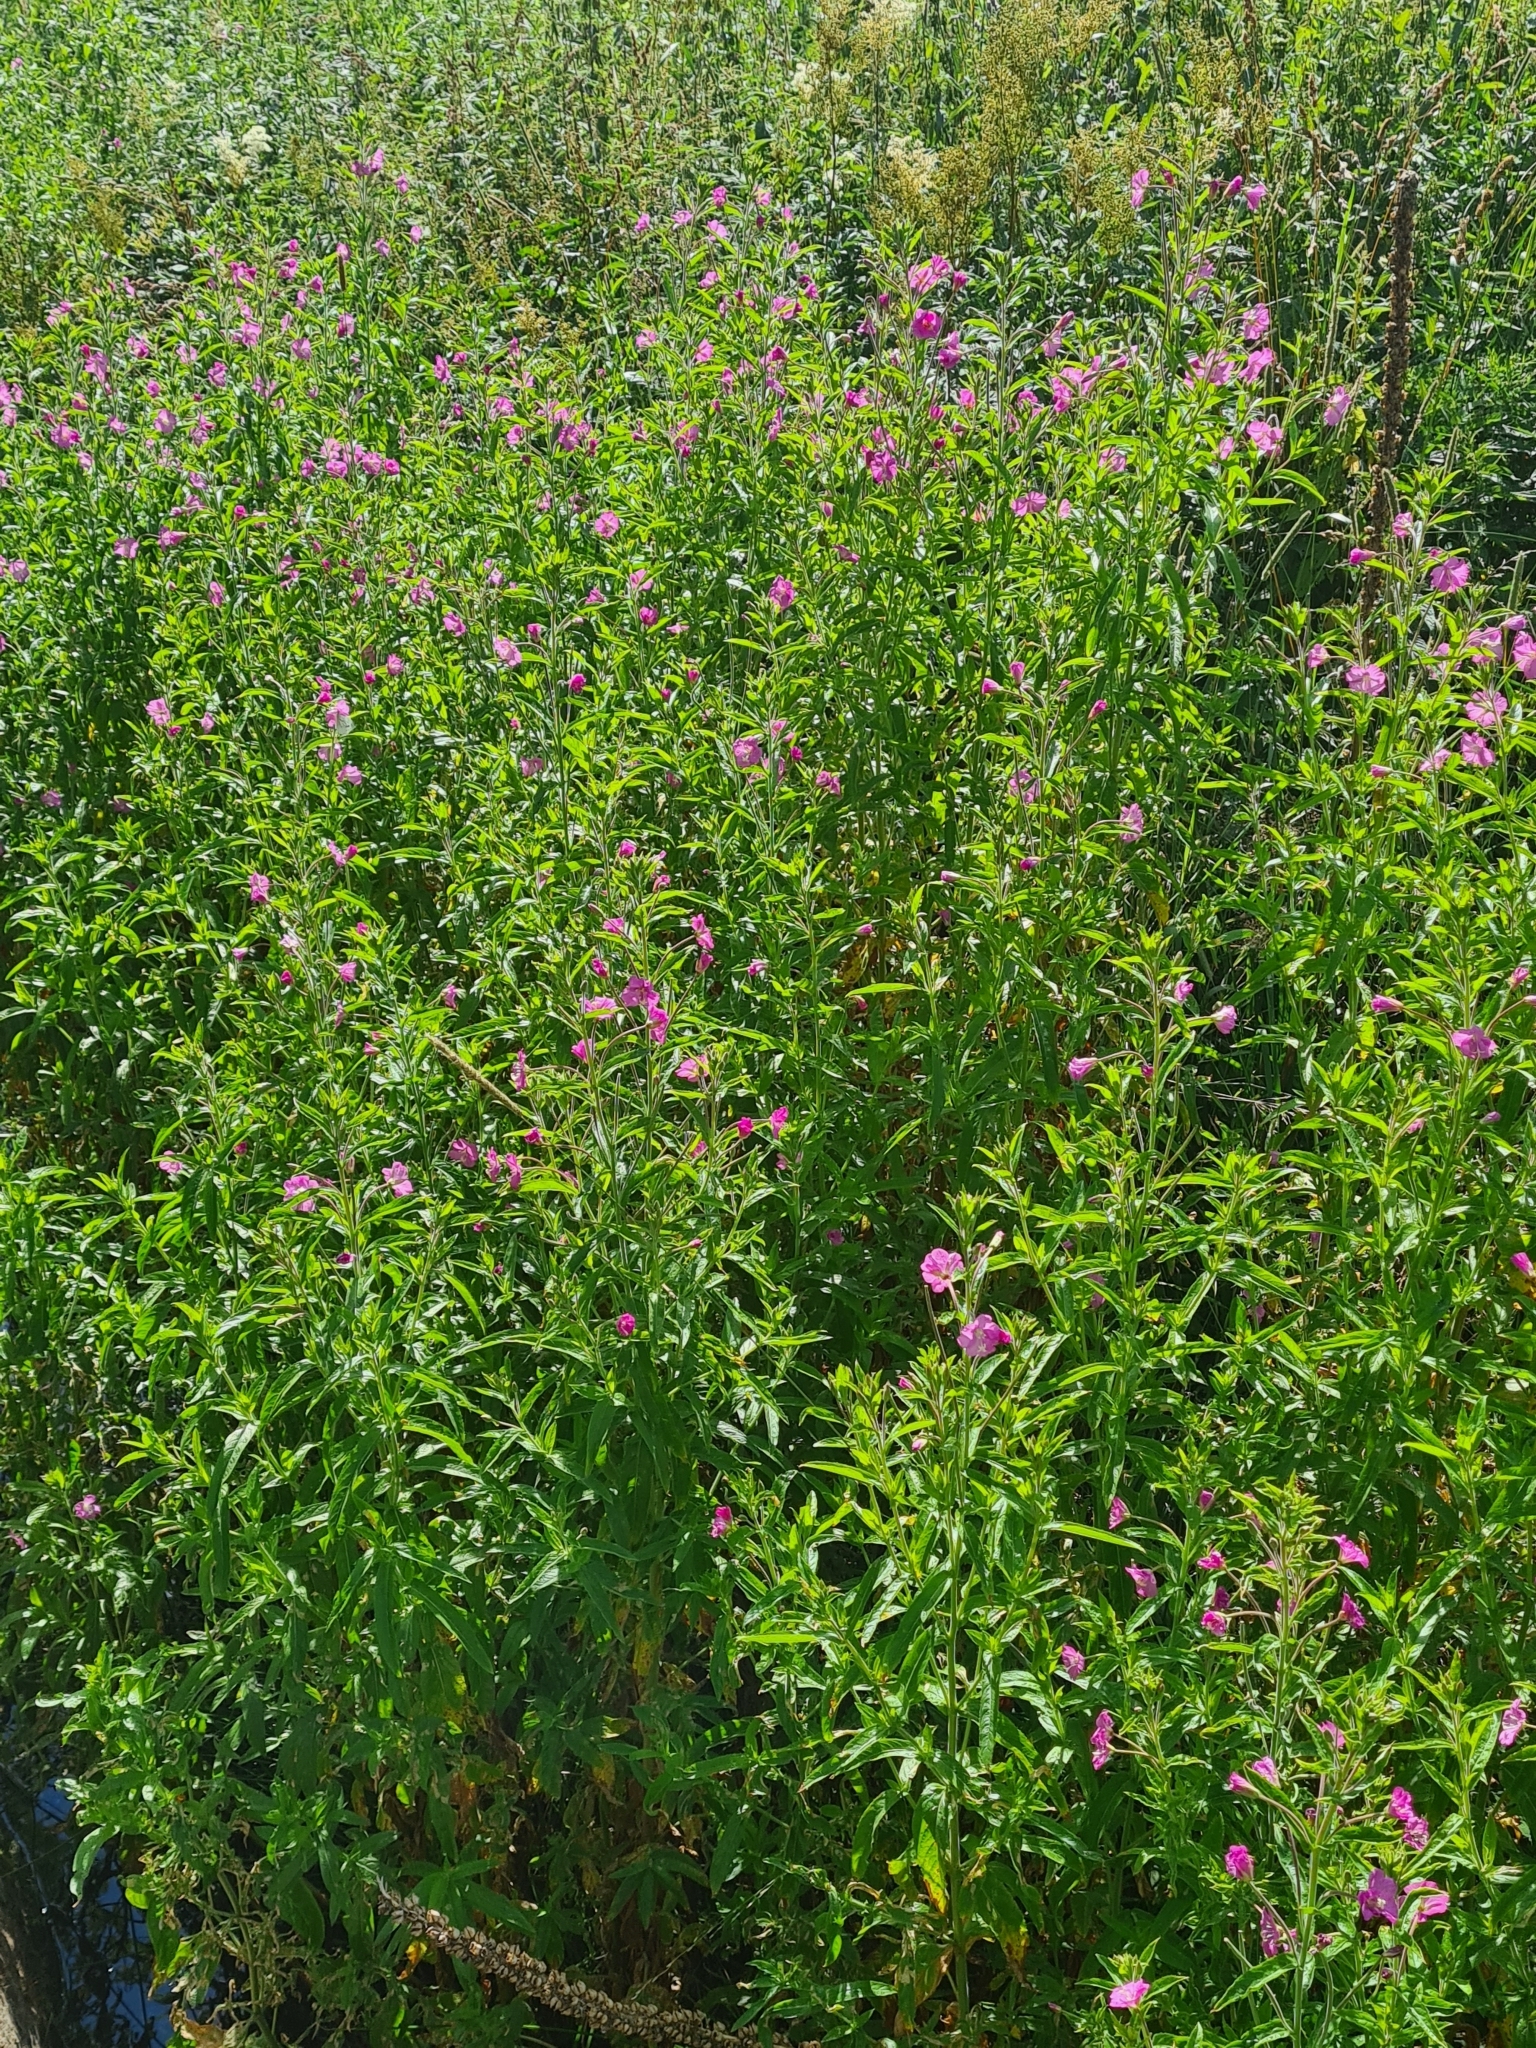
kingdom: Plantae
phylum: Tracheophyta
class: Magnoliopsida
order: Myrtales
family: Onagraceae
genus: Epilobium
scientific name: Epilobium hirsutum
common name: Great willowherb
